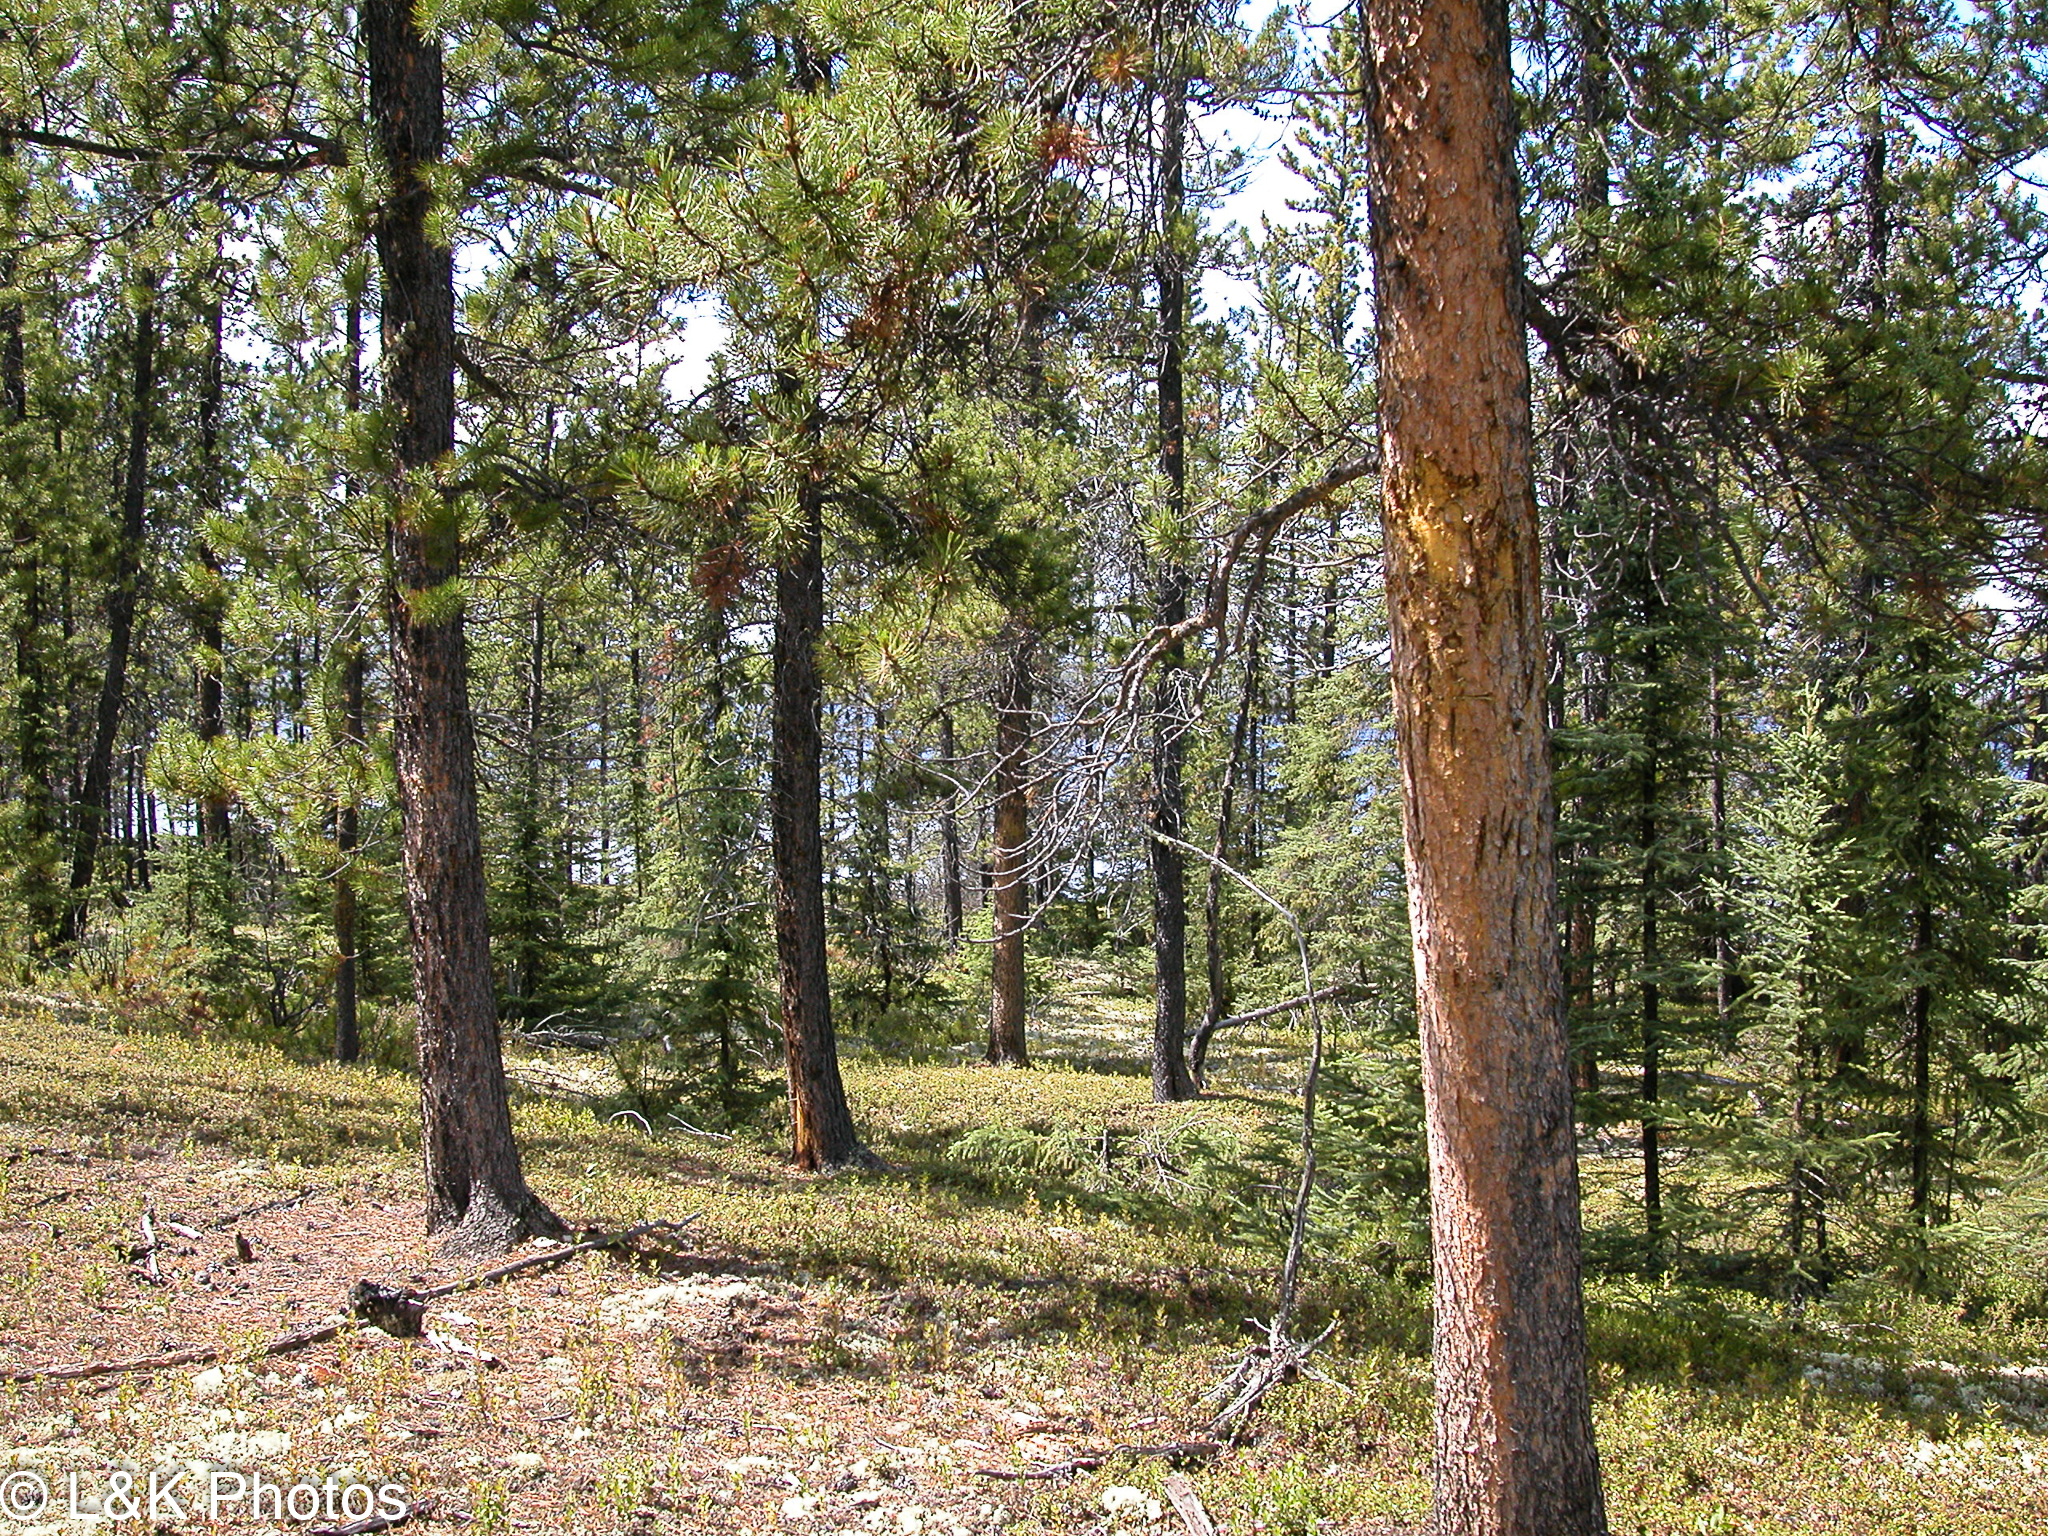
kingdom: Plantae
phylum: Tracheophyta
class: Pinopsida
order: Pinales
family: Pinaceae
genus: Pinus
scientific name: Pinus banksiana
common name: Jack pine
